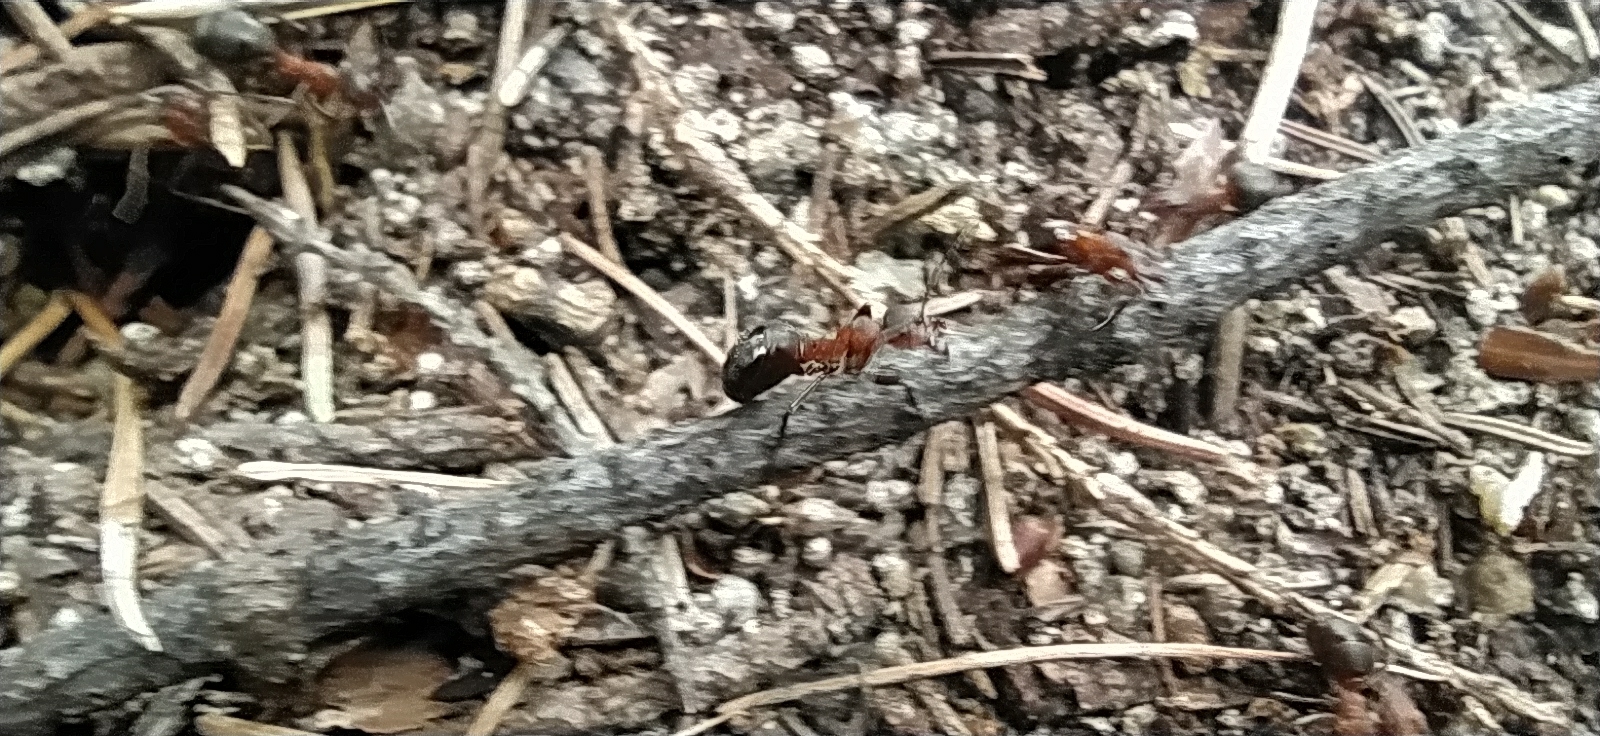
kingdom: Animalia
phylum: Arthropoda
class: Insecta
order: Hymenoptera
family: Formicidae
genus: Formica
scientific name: Formica rufa
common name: Red wood ant
